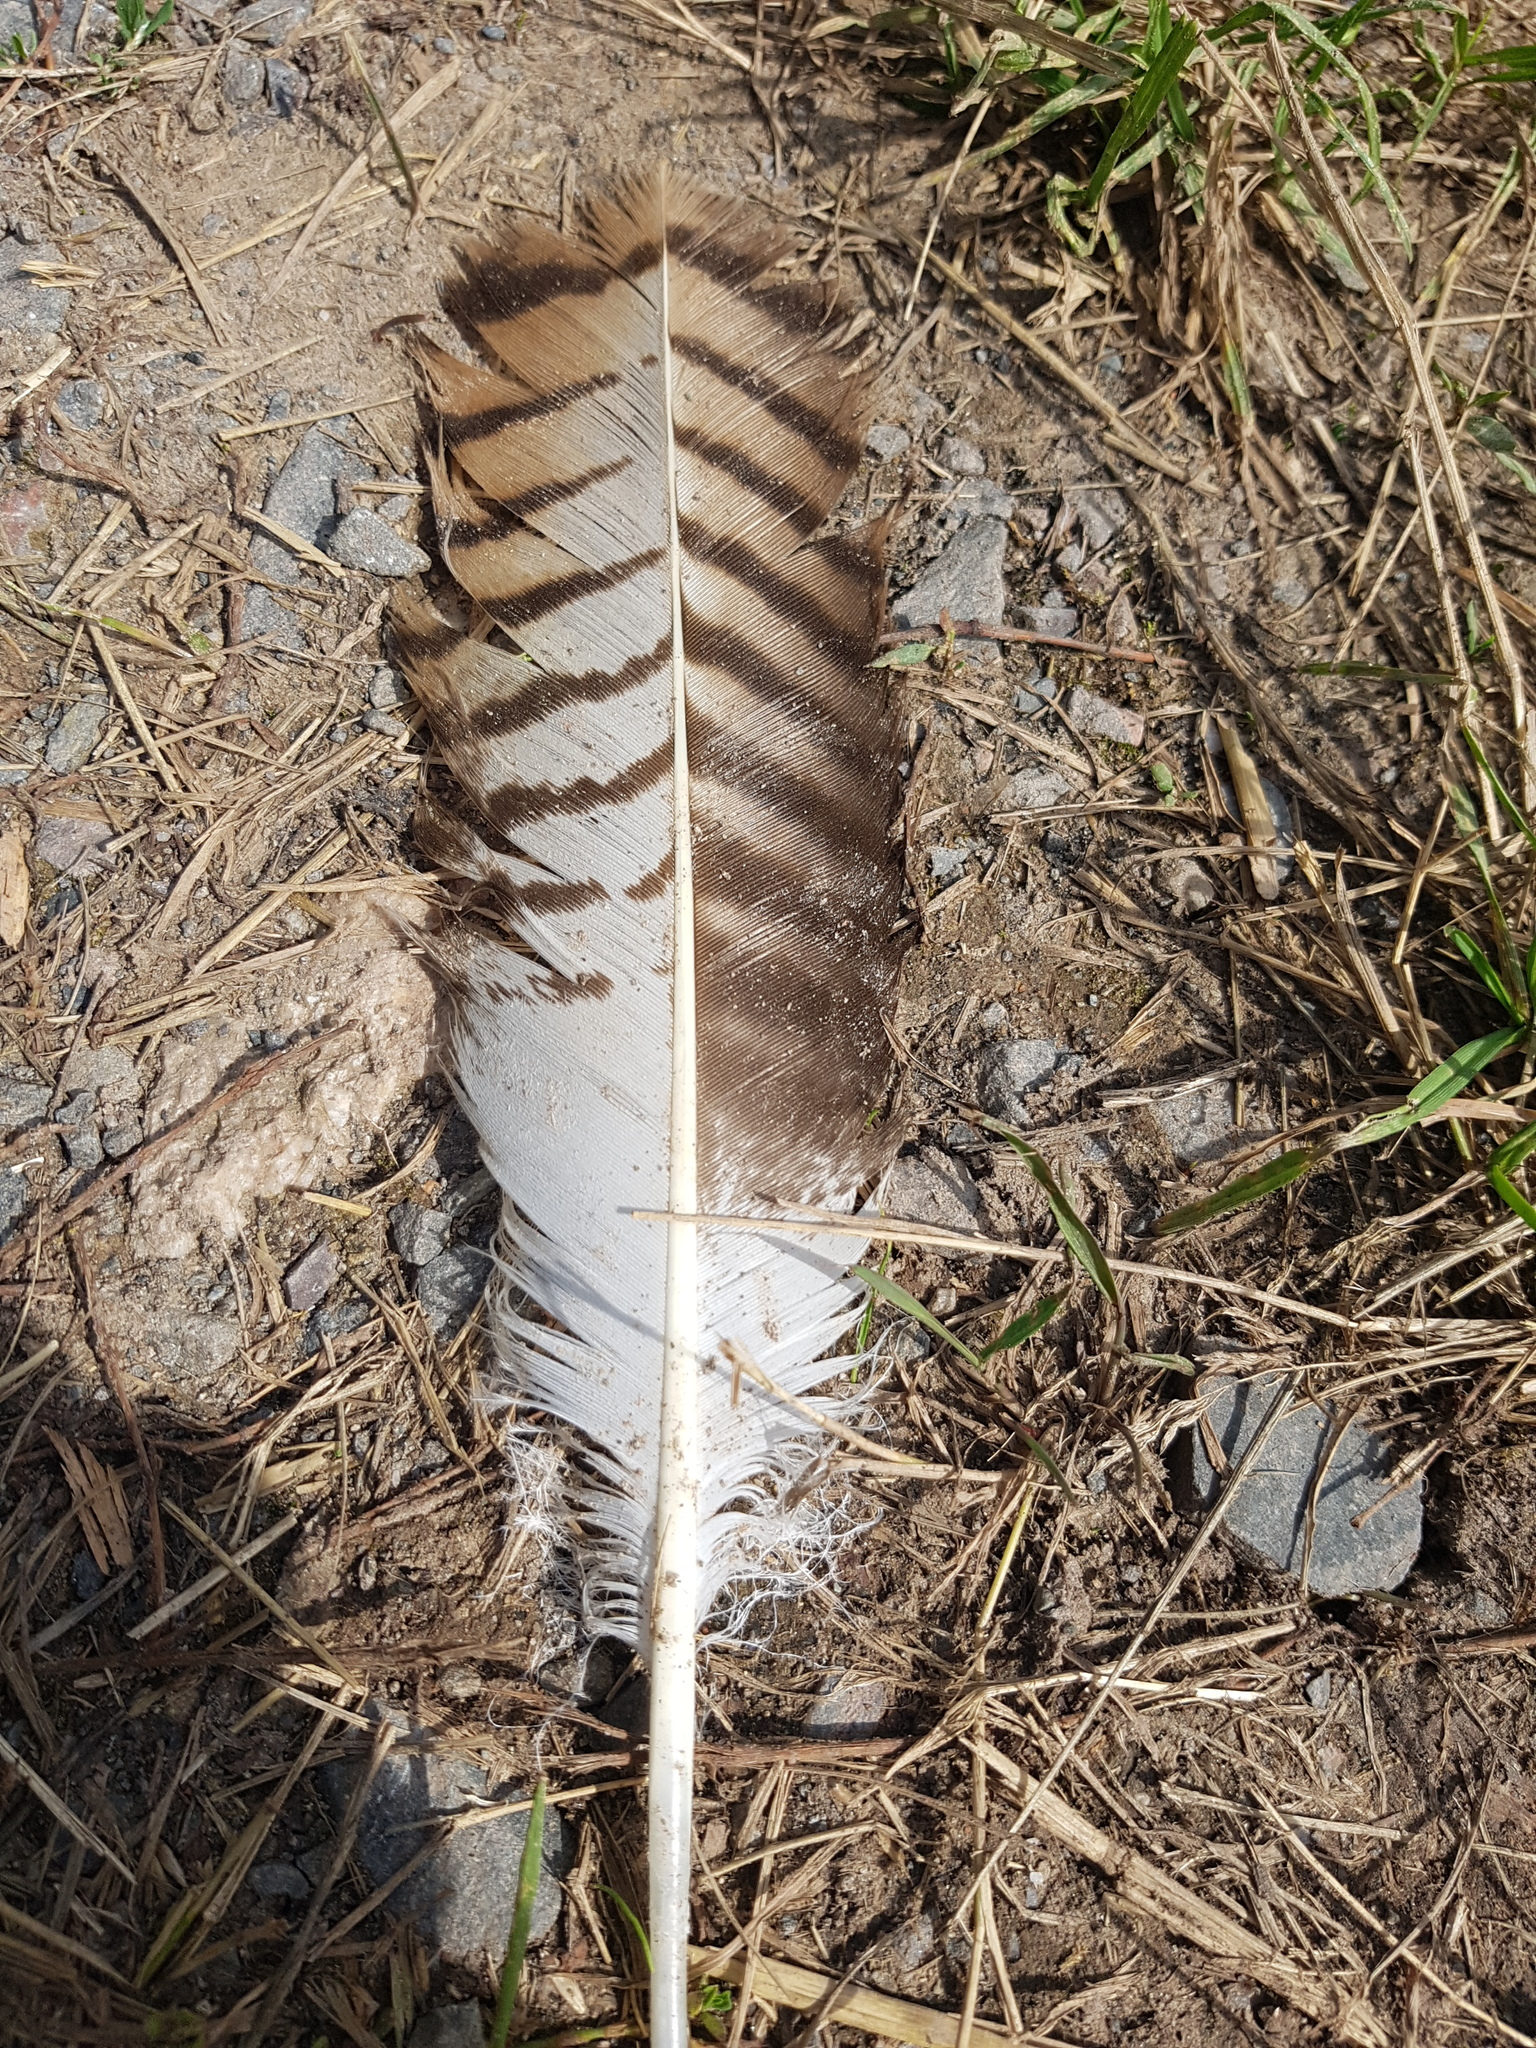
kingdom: Animalia
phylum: Chordata
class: Aves
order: Accipitriformes
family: Accipitridae
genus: Buteo
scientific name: Buteo buteo
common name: Common buzzard
